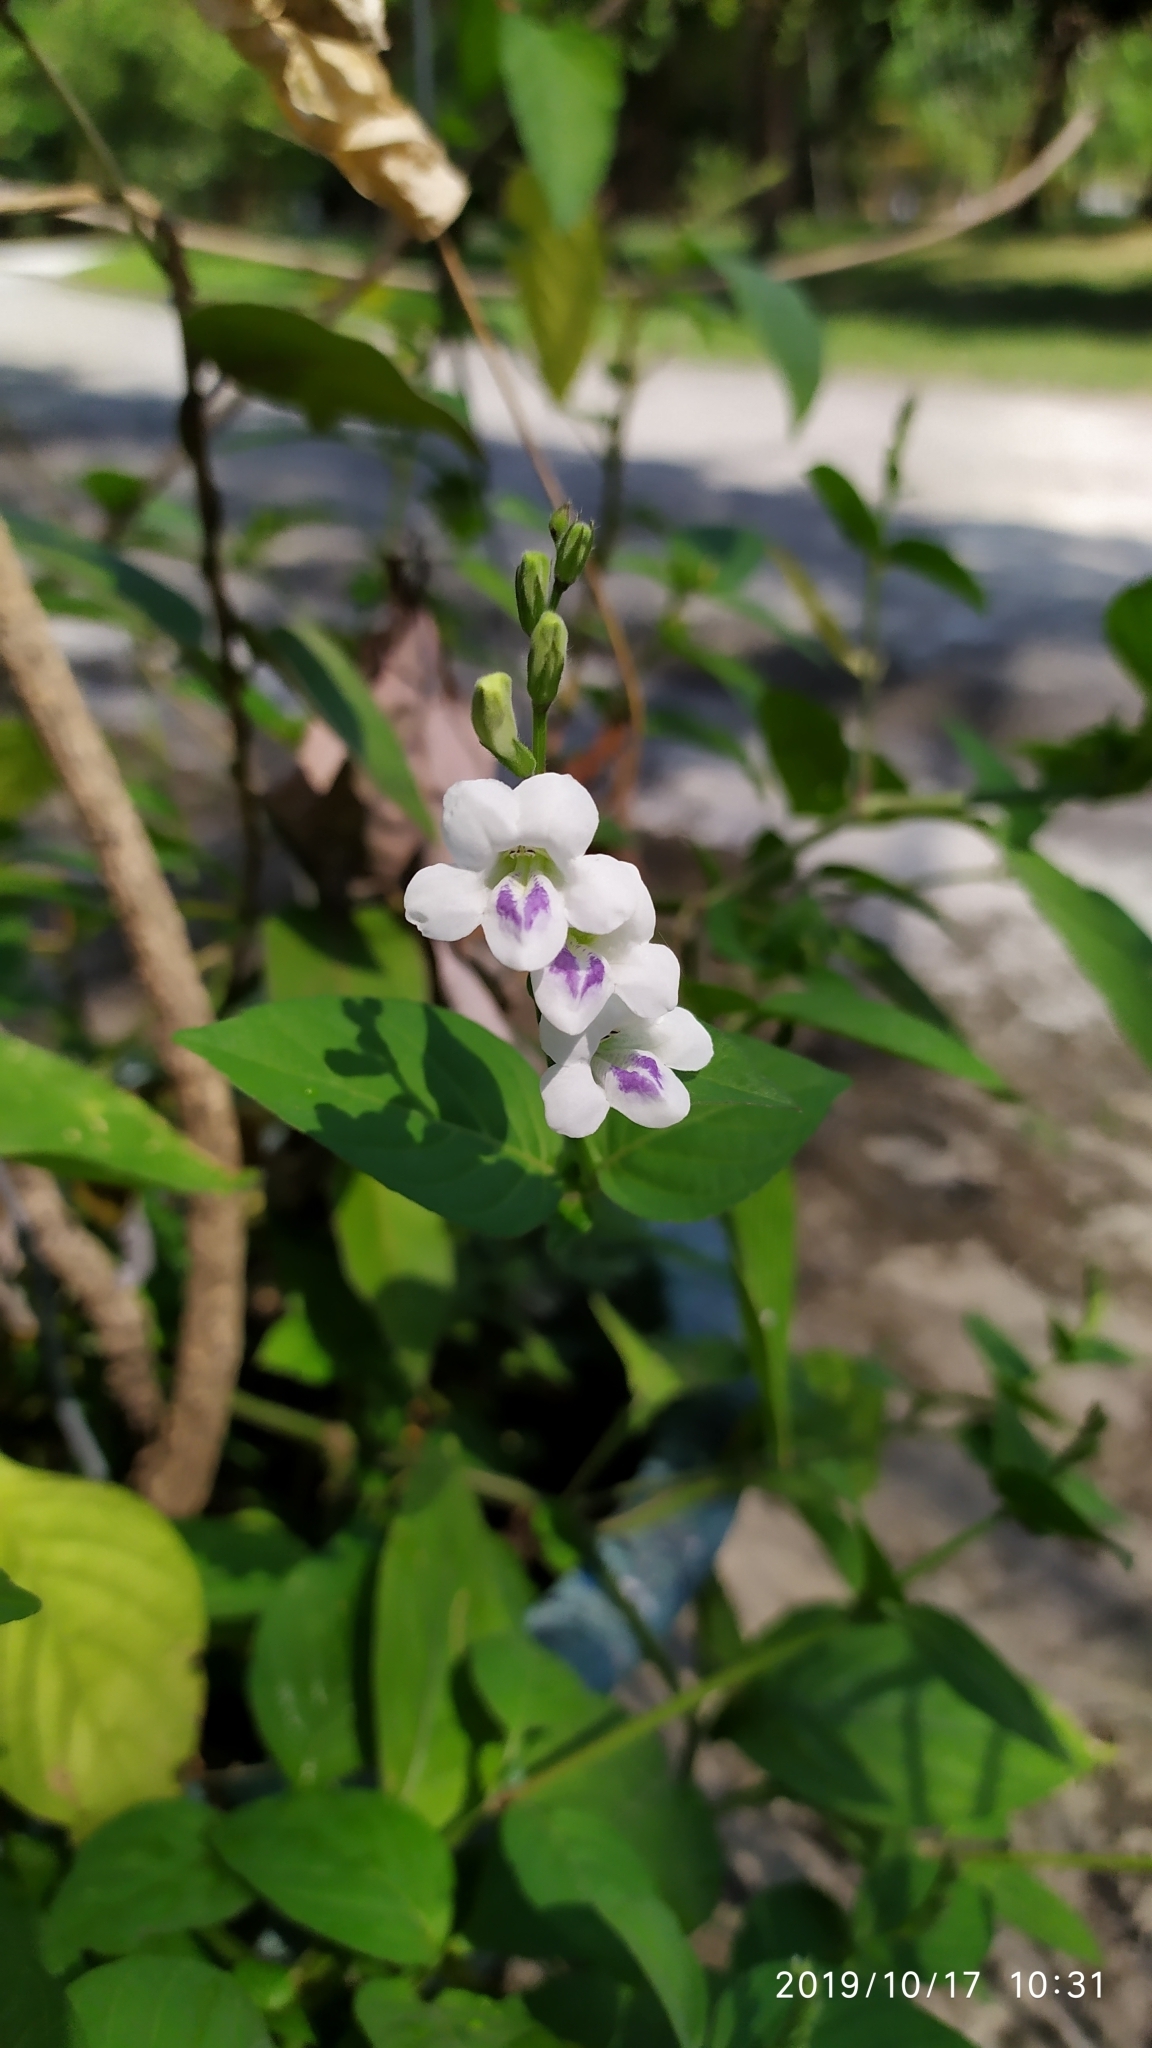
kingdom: Plantae
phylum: Tracheophyta
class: Magnoliopsida
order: Lamiales
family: Acanthaceae
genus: Asystasia
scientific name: Asystasia intrusa
